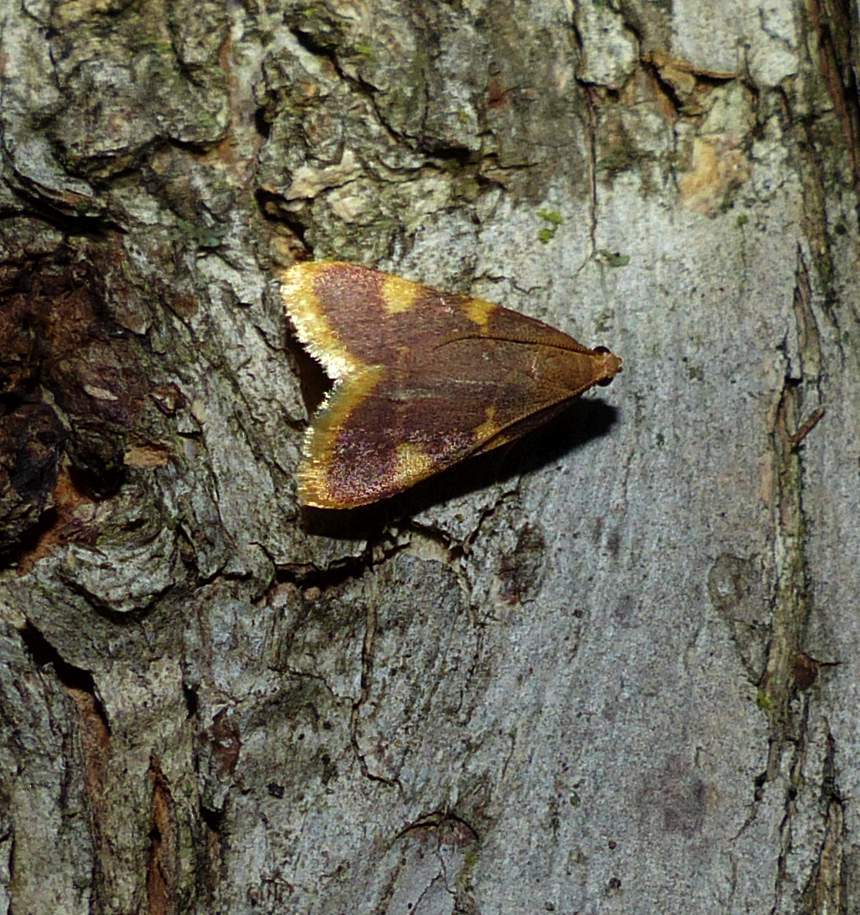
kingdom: Animalia
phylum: Arthropoda
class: Insecta
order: Lepidoptera
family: Pyralidae
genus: Hypsopygia
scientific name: Hypsopygia costalis
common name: Gold triangle
